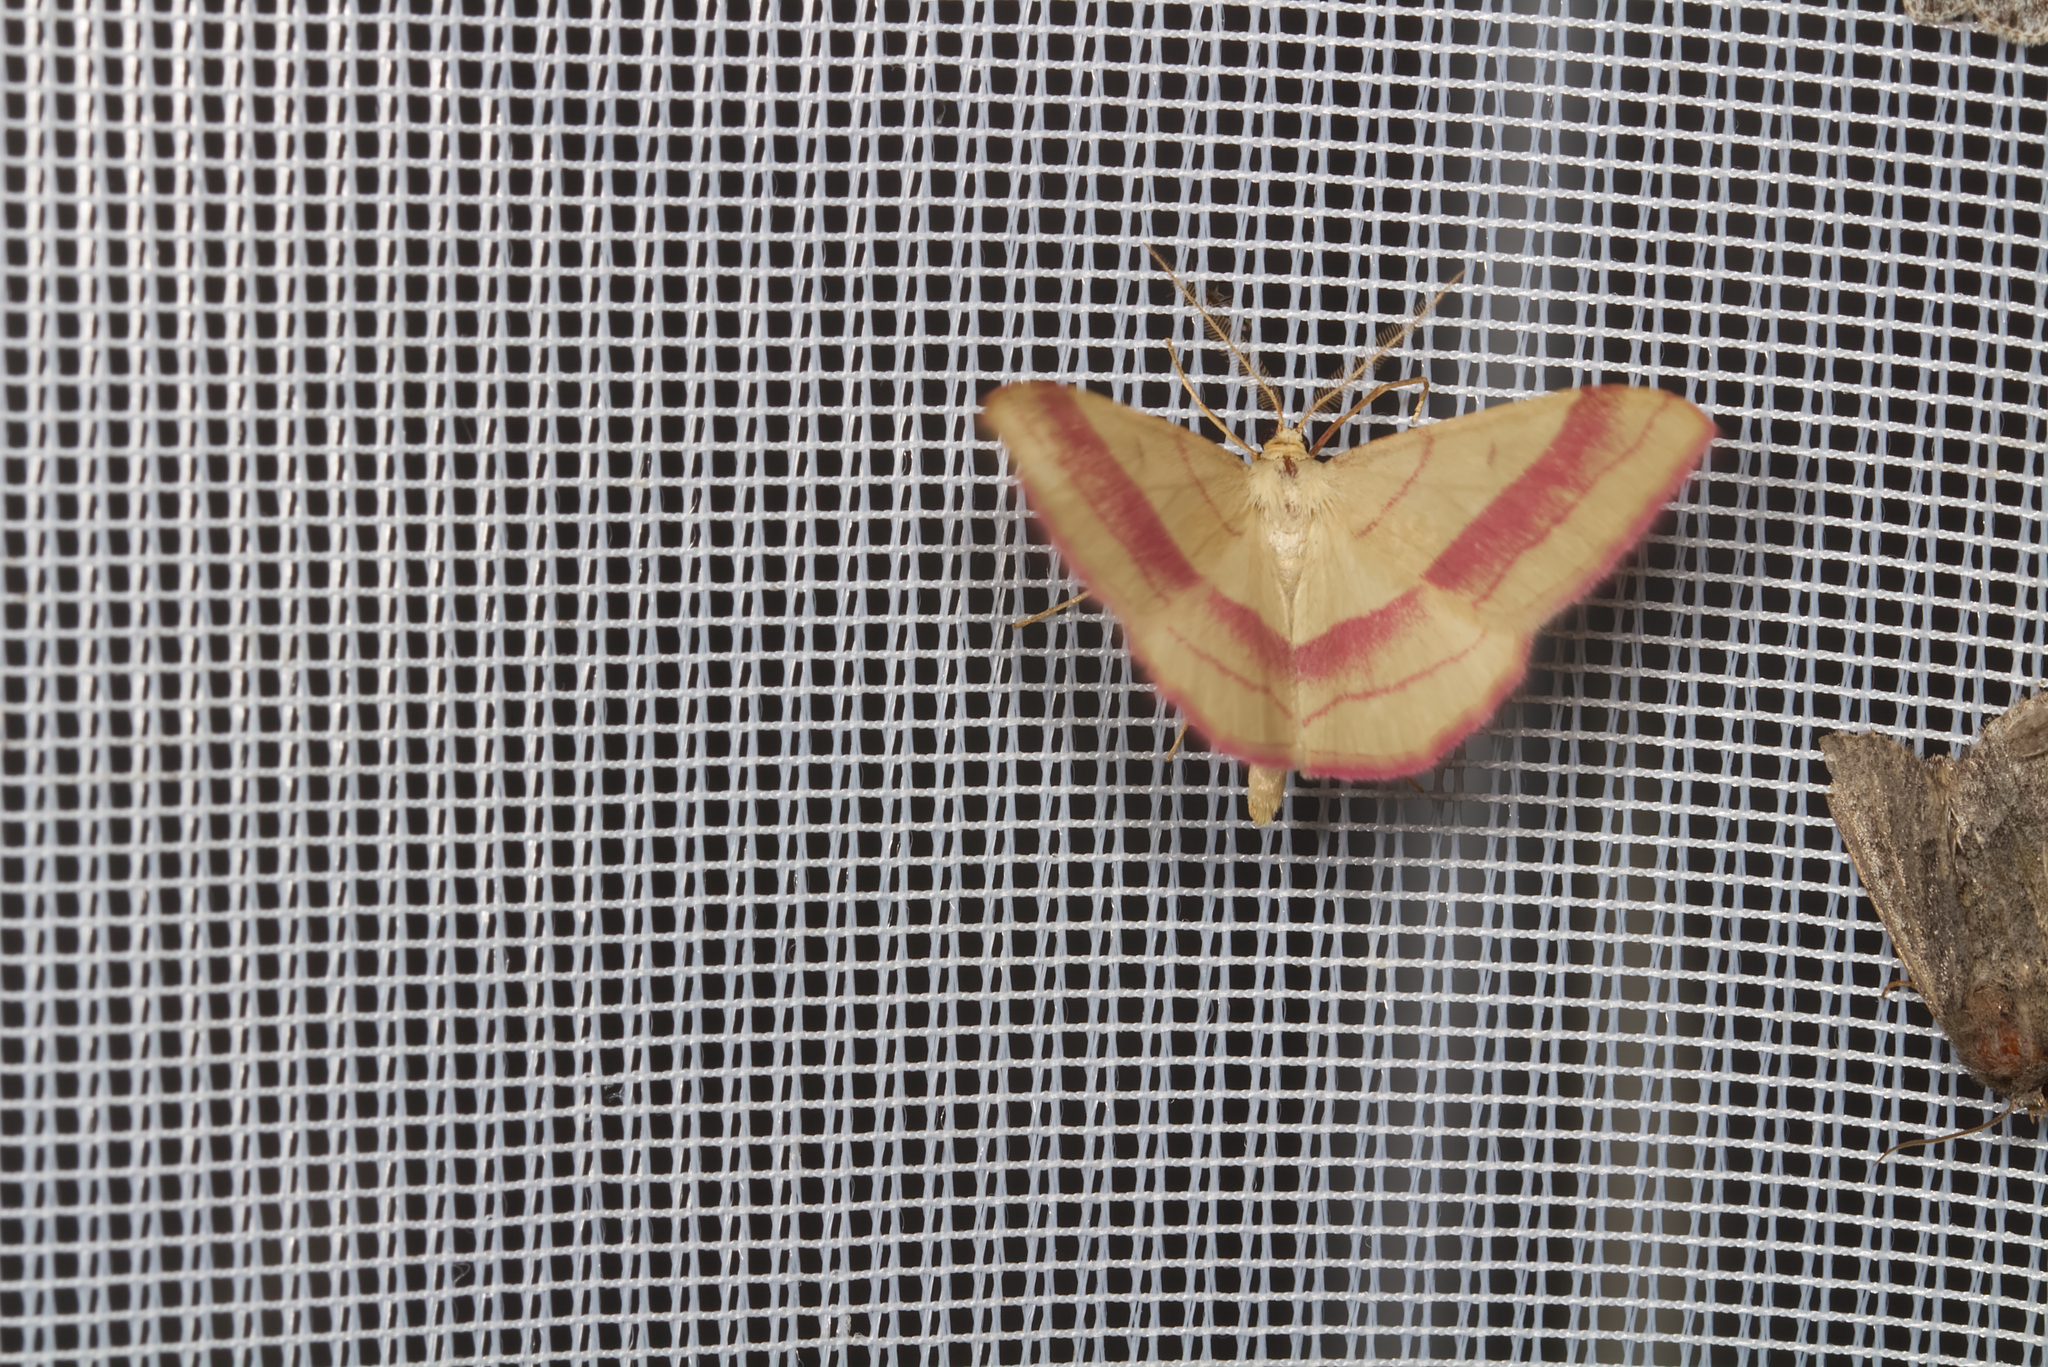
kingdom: Animalia
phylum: Arthropoda
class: Insecta
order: Lepidoptera
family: Geometridae
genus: Rhodostrophia
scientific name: Rhodostrophia vibicaria
